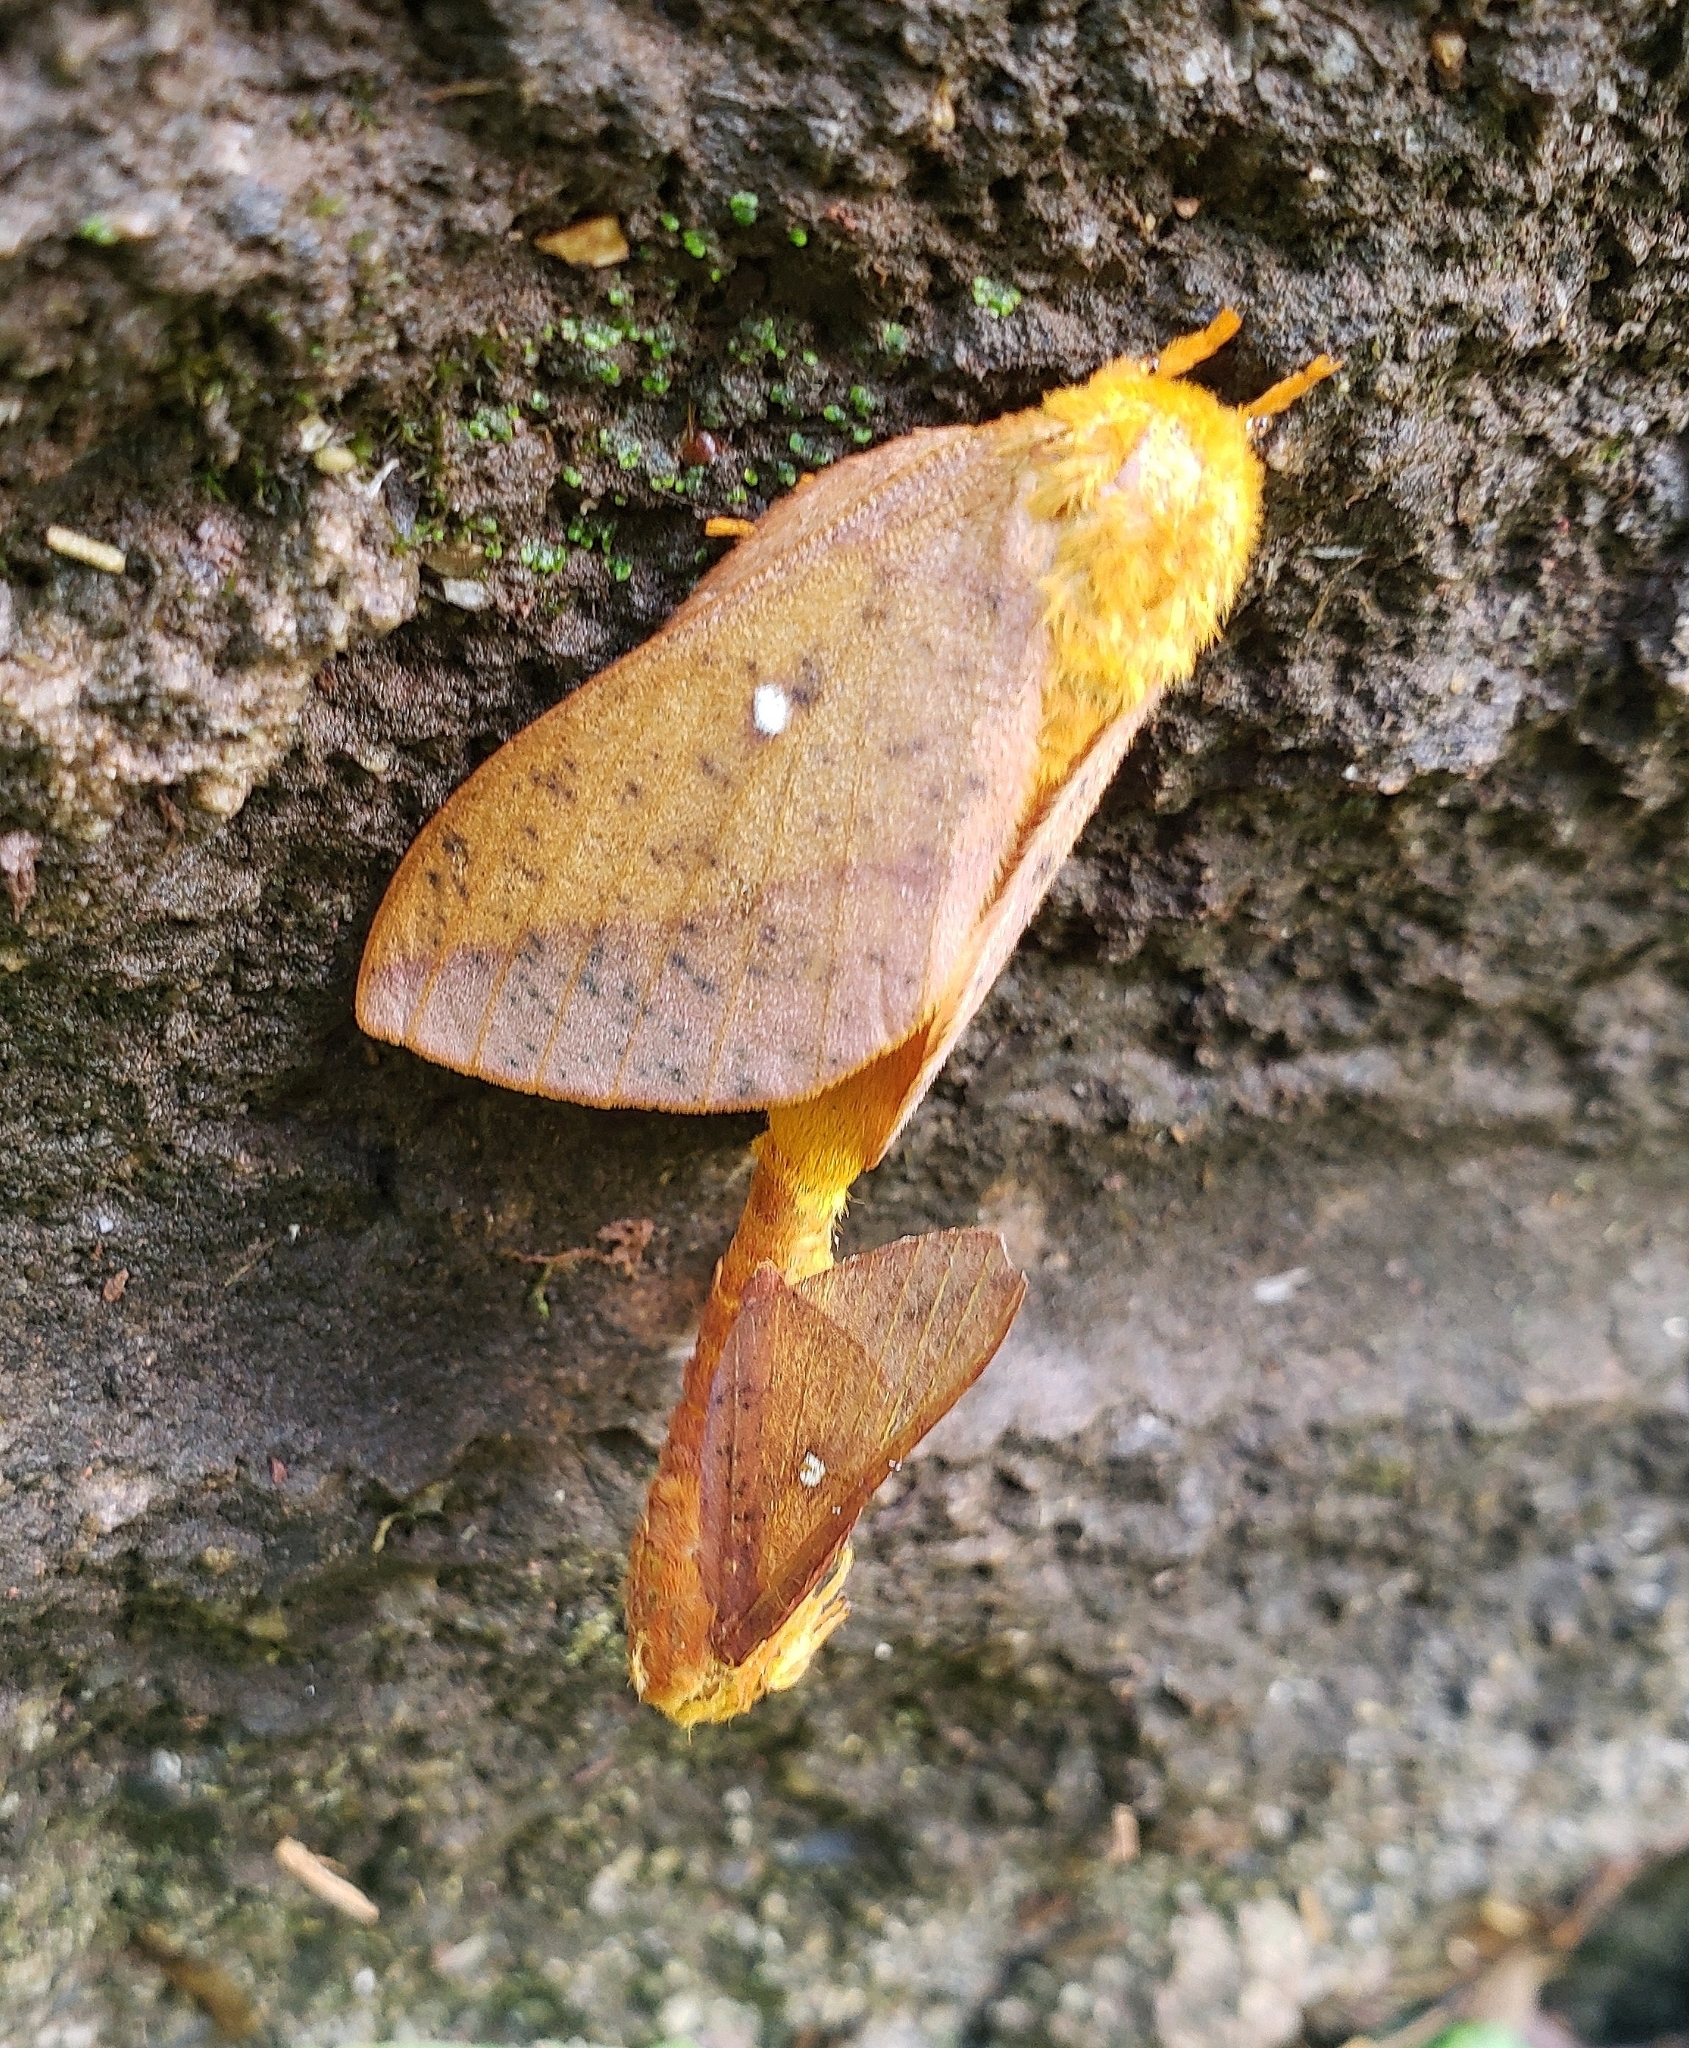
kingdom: Animalia
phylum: Arthropoda
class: Insecta
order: Lepidoptera
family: Saturniidae
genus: Anisota
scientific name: Anisota senatoria
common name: Orange-striped oakworm moth
